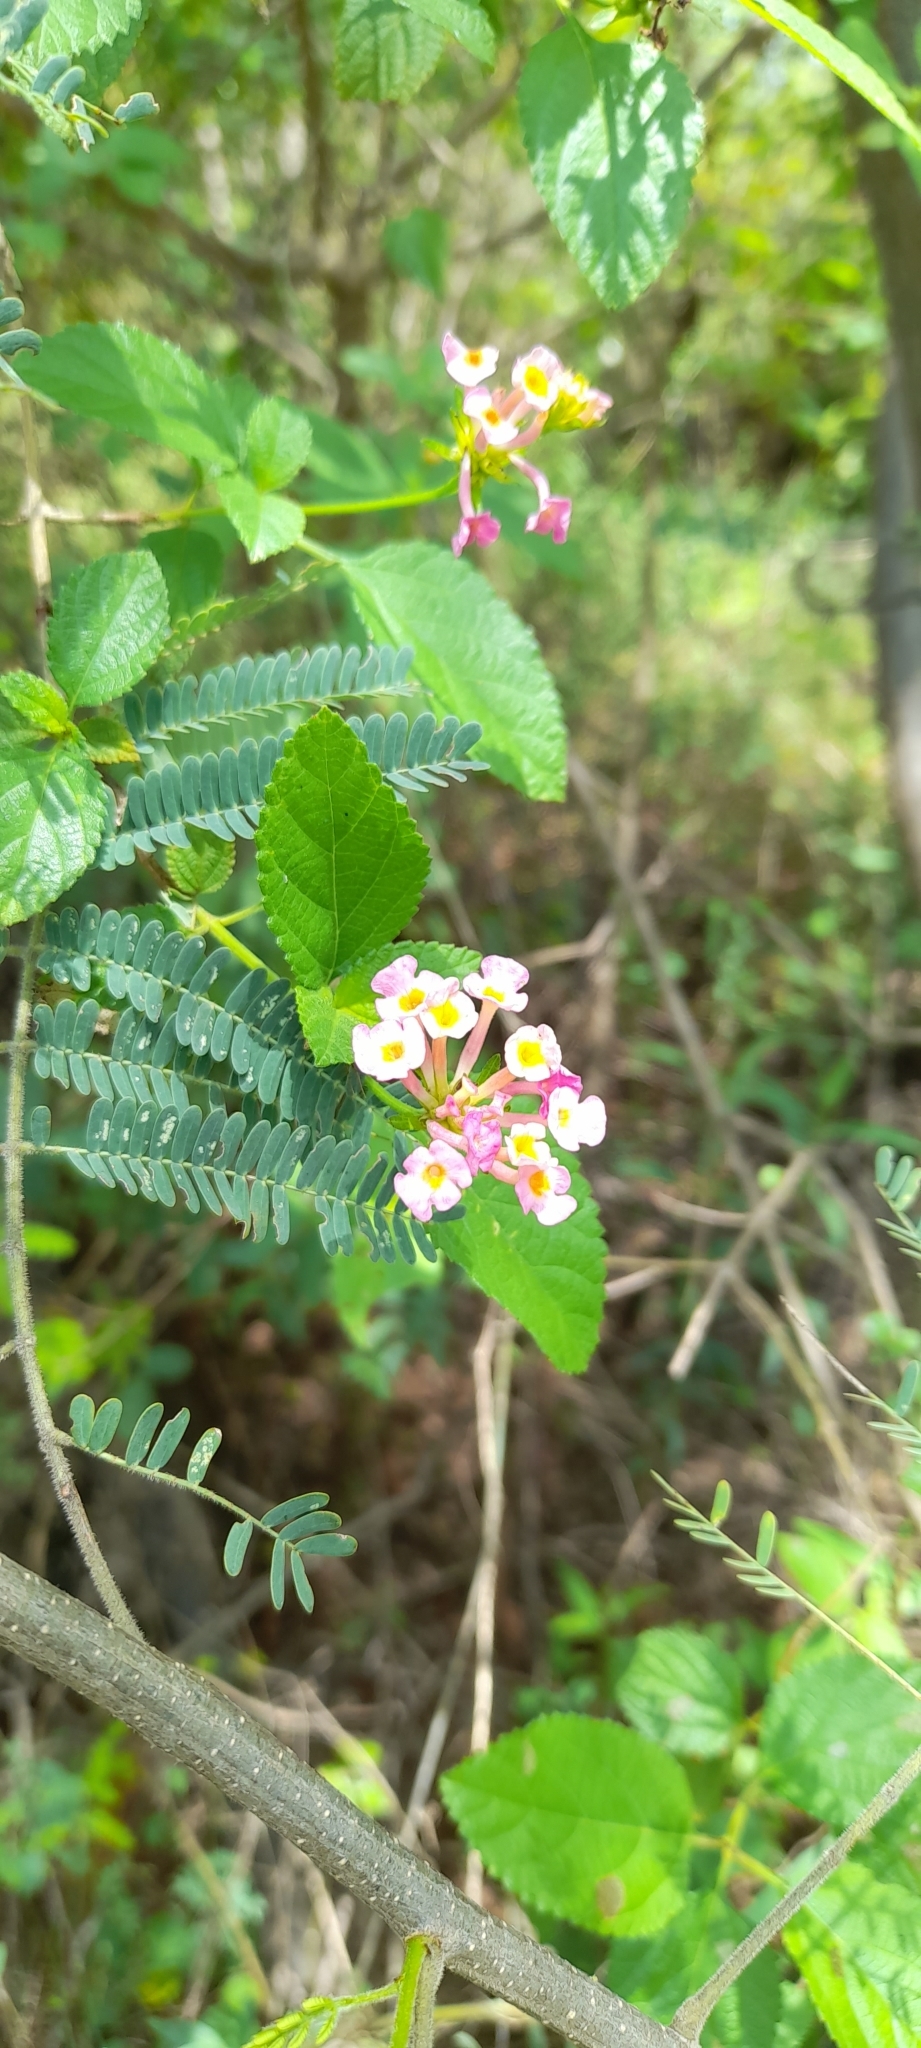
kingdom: Plantae
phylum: Tracheophyta
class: Magnoliopsida
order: Lamiales
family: Verbenaceae
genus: Lantana
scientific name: Lantana camara
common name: Lantana
